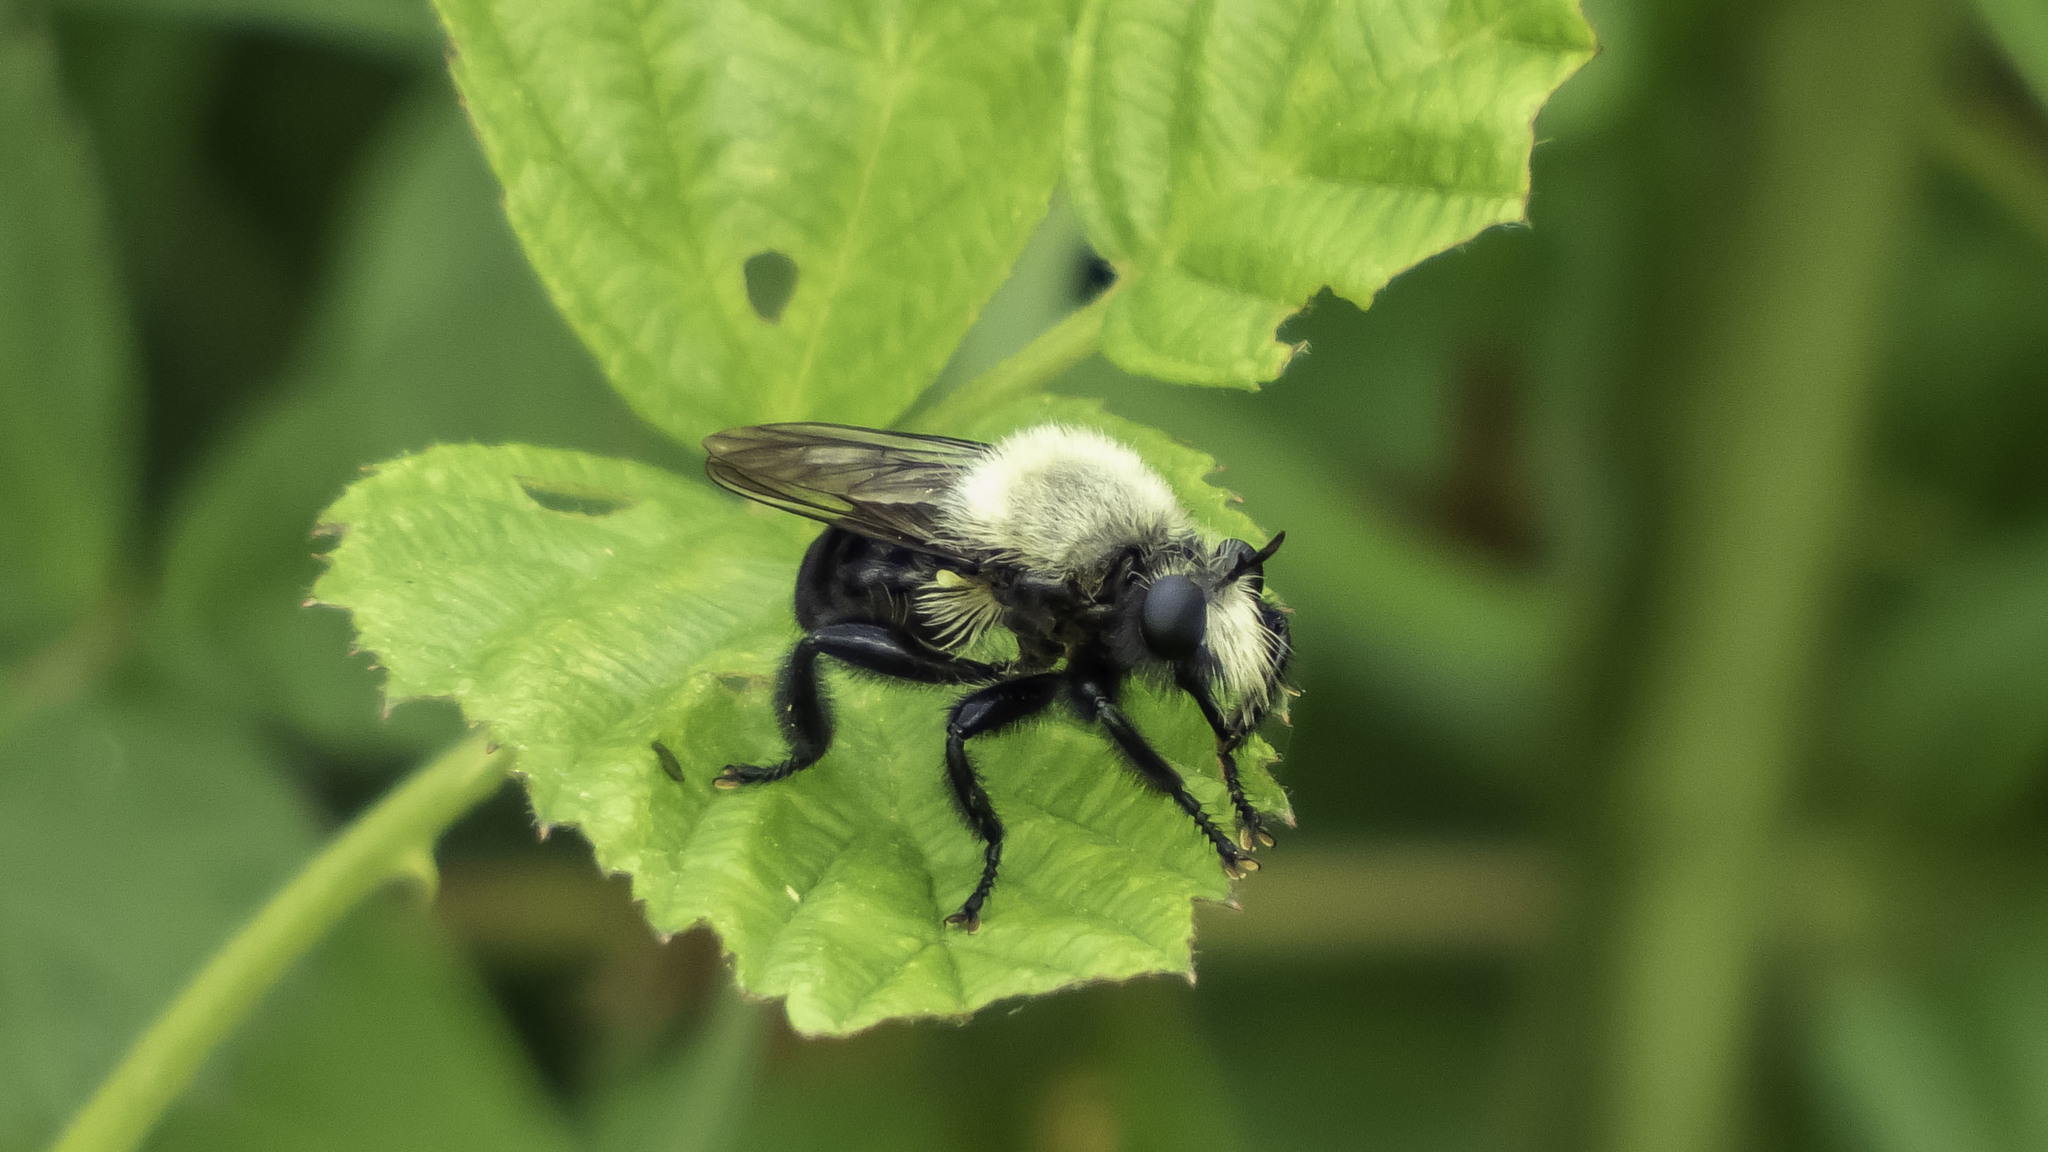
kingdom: Animalia
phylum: Arthropoda
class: Insecta
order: Diptera
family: Asilidae
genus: Laphria
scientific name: Laphria flavicollis
